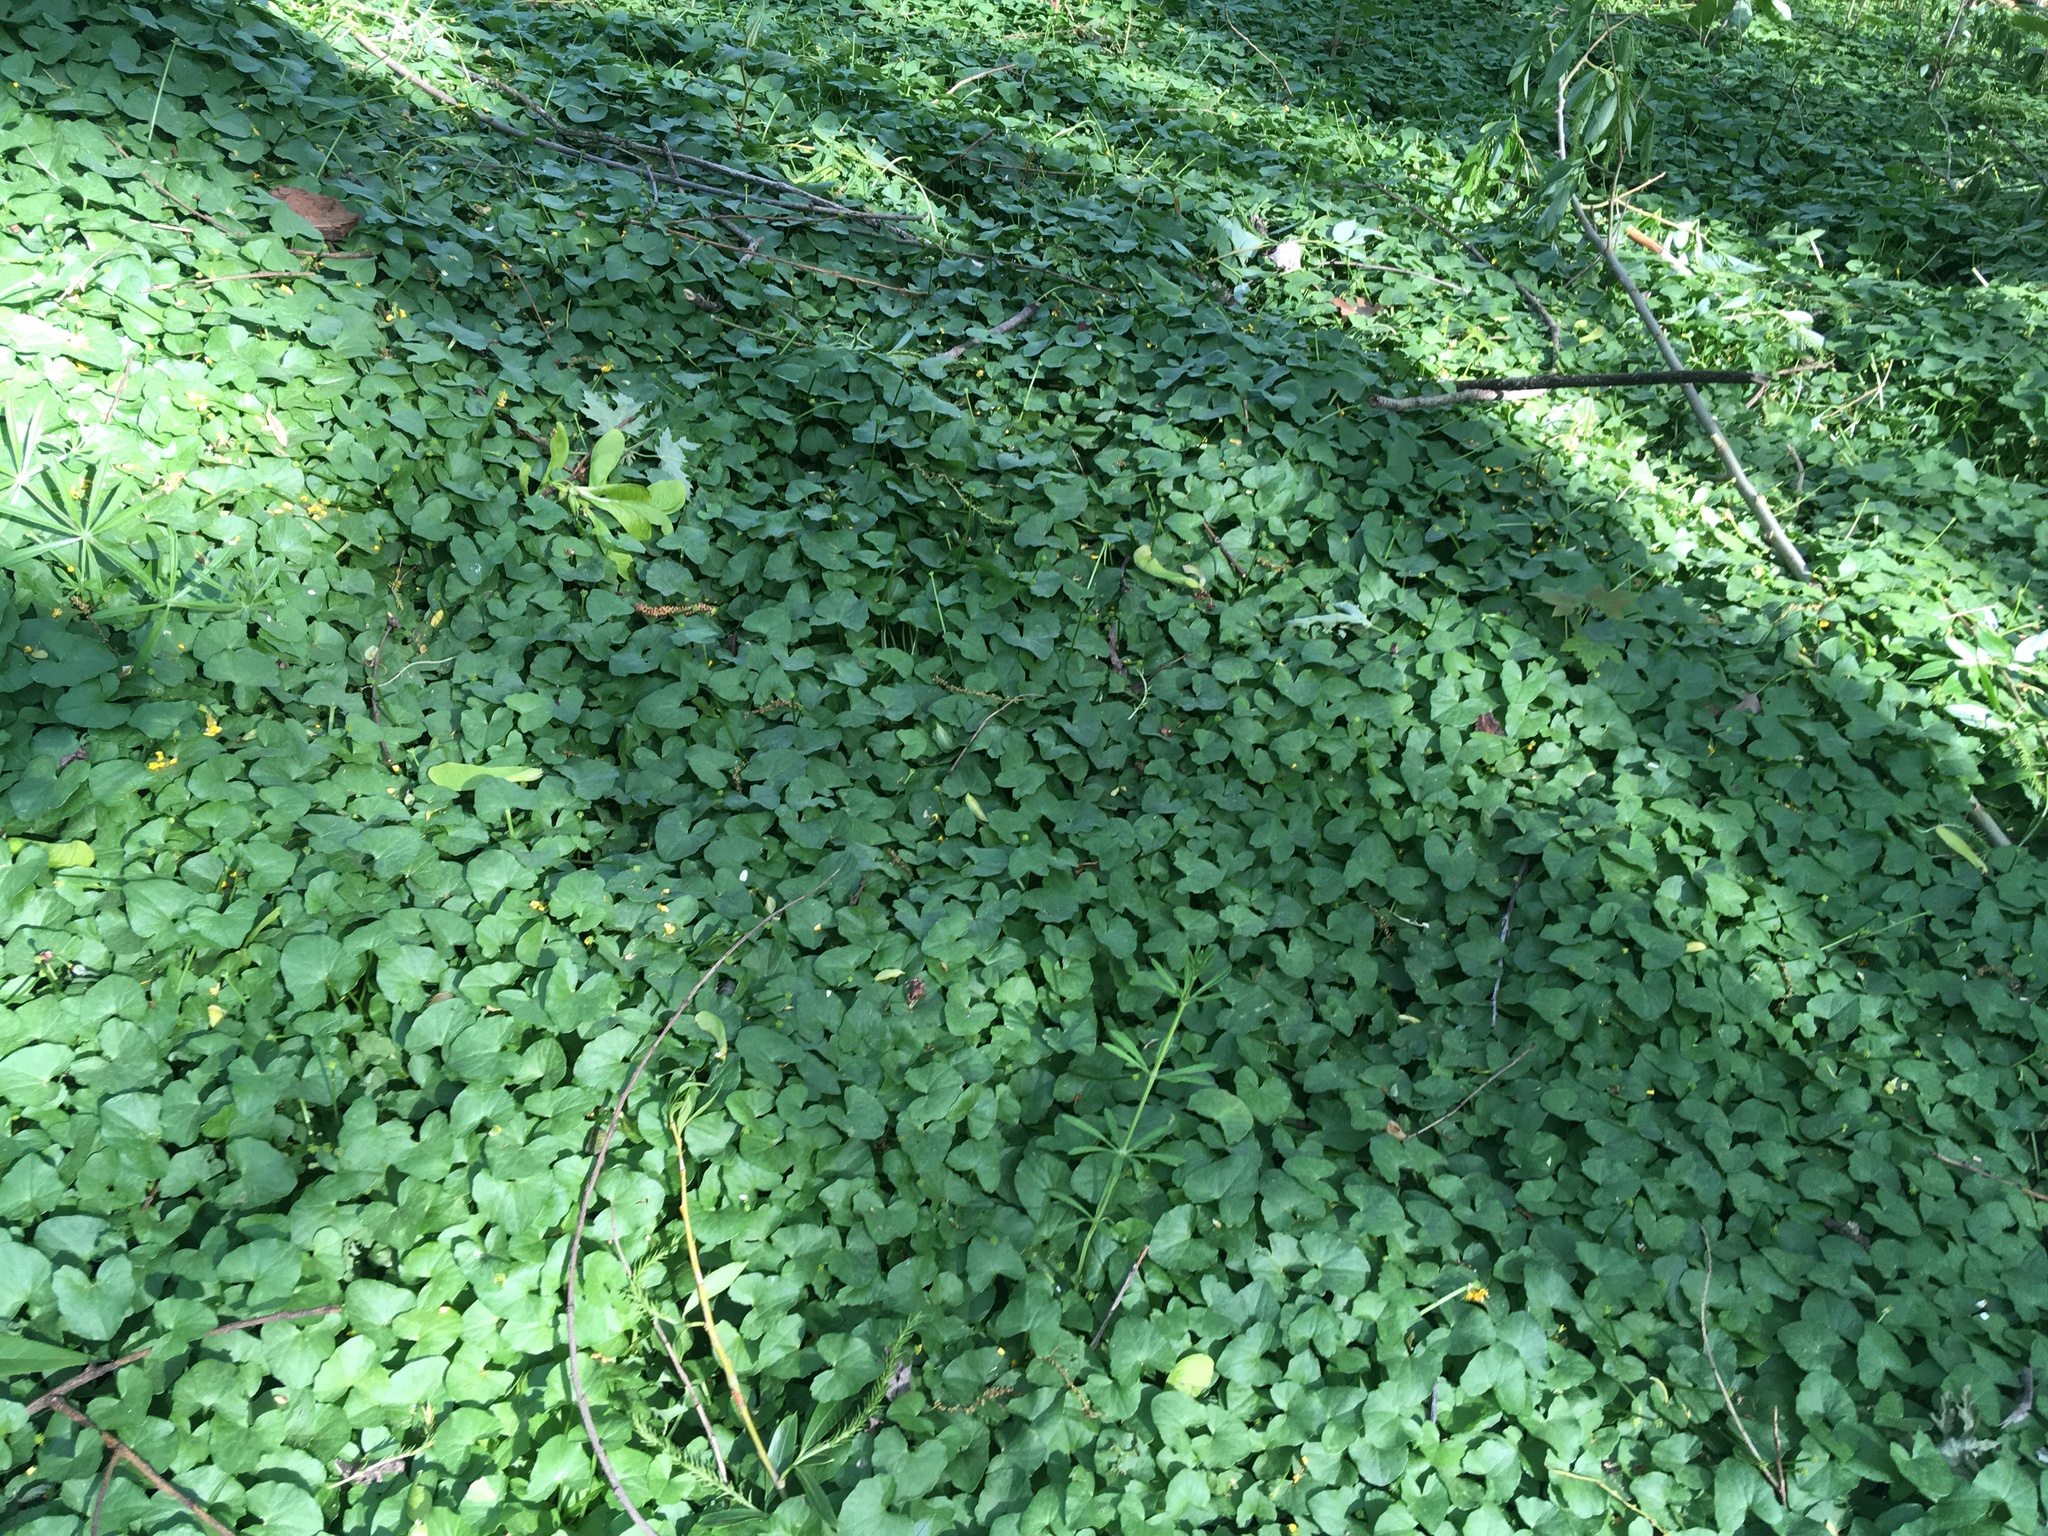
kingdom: Plantae
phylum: Tracheophyta
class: Magnoliopsida
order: Ranunculales
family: Ranunculaceae
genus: Ficaria
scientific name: Ficaria verna
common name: Lesser celandine
